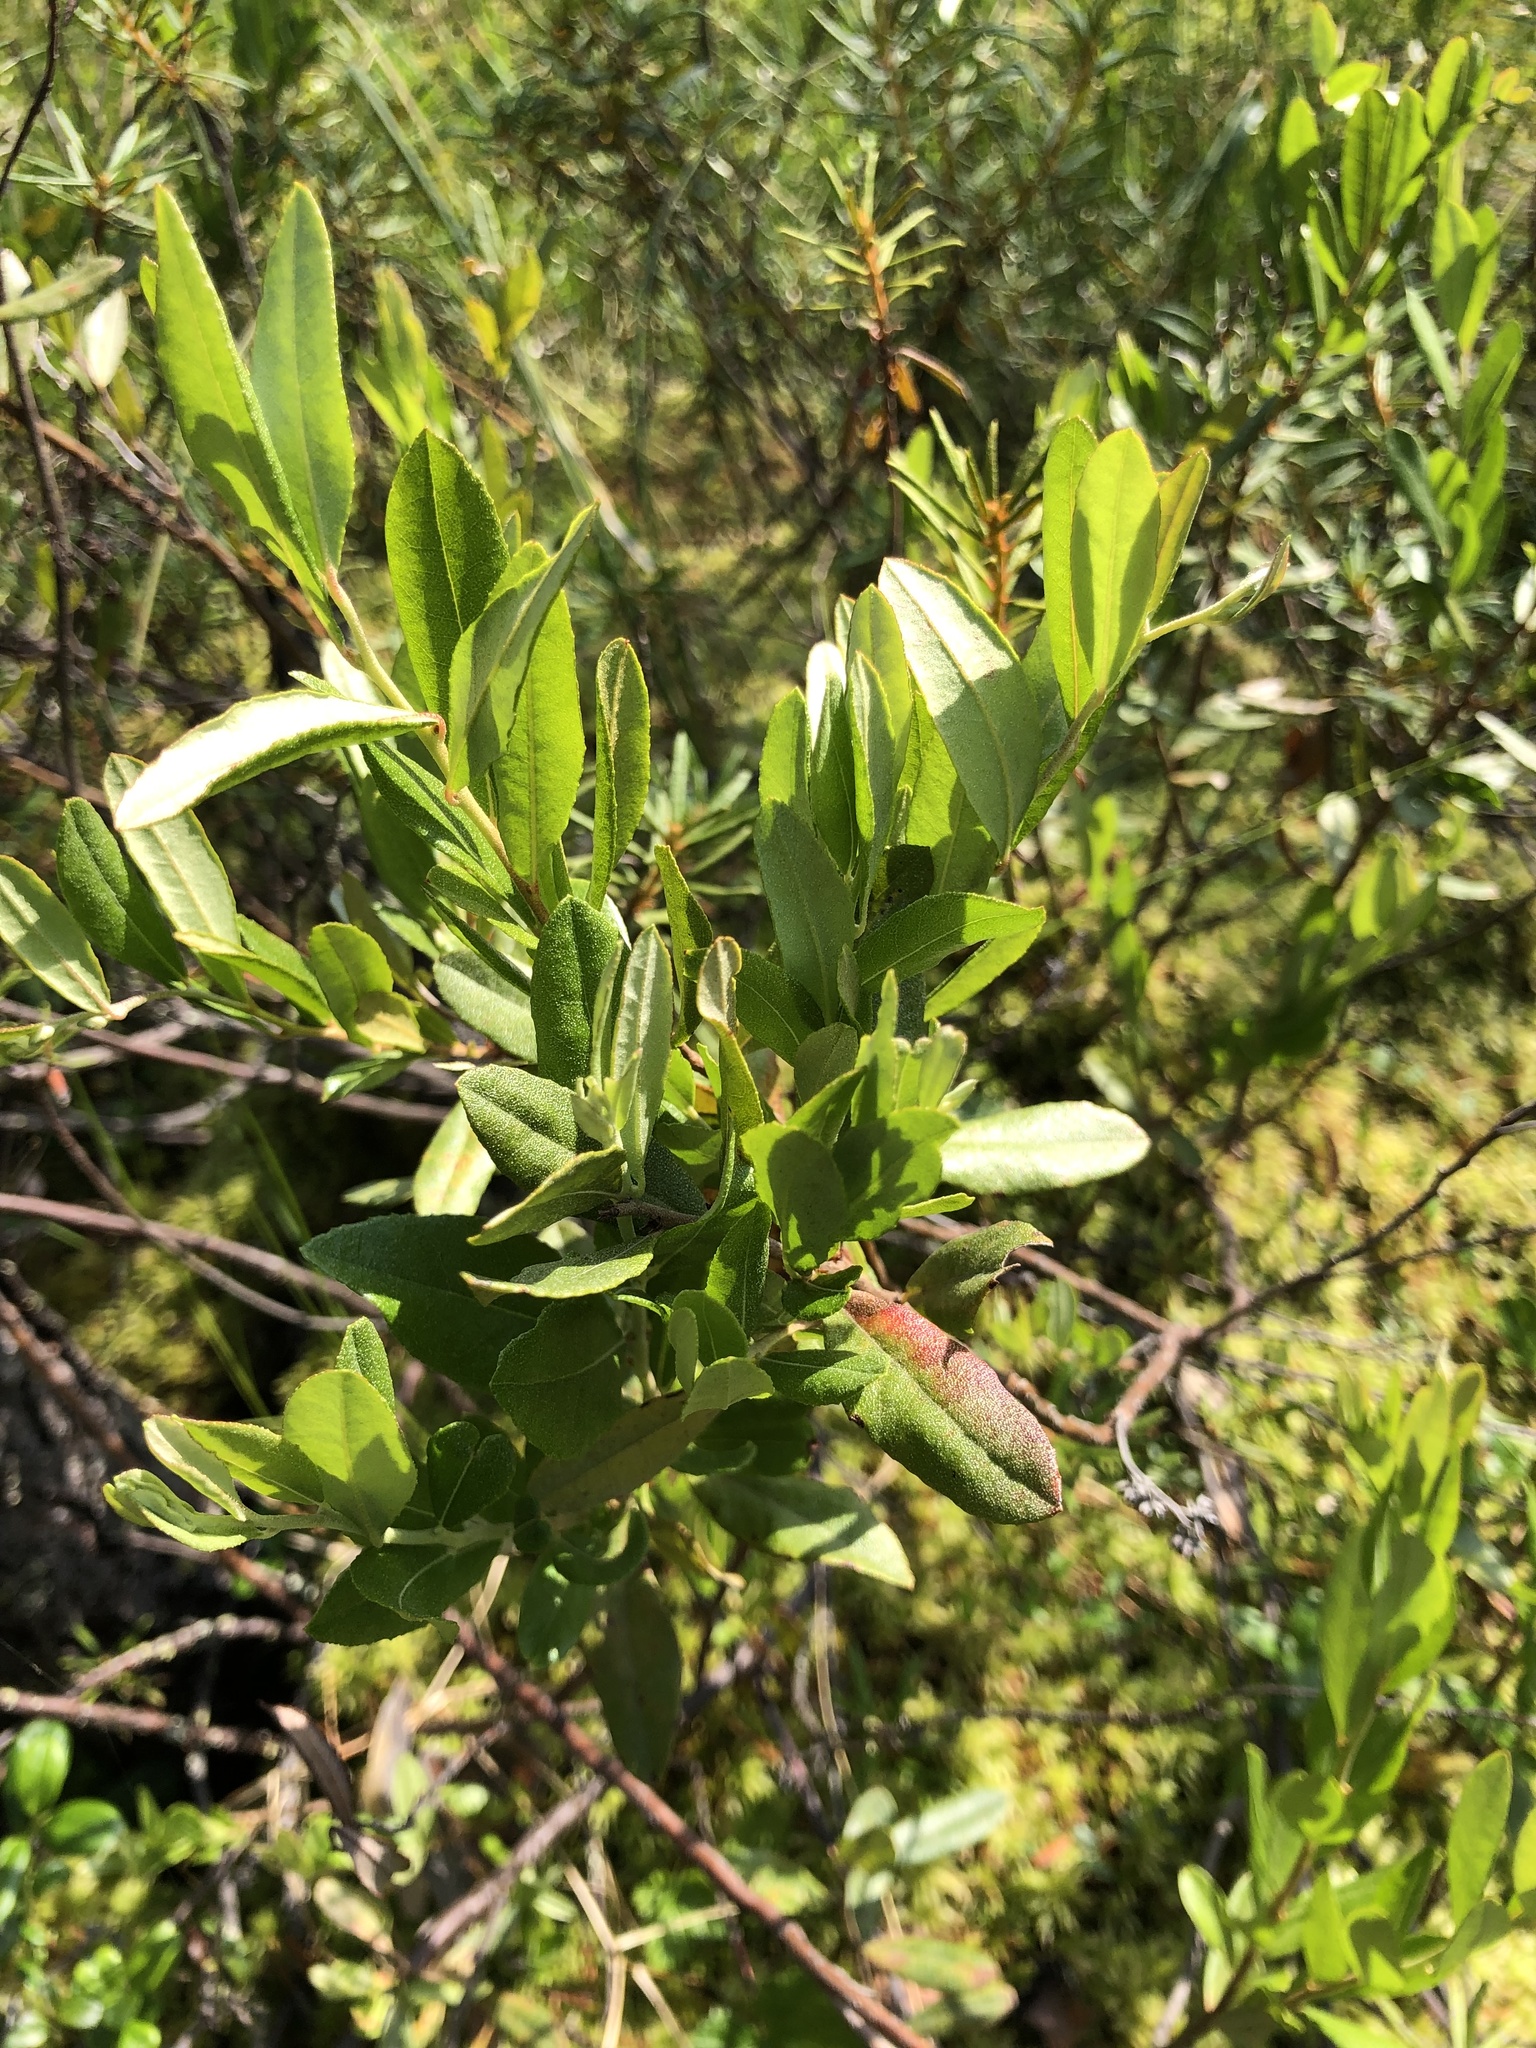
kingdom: Plantae
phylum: Tracheophyta
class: Magnoliopsida
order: Ericales
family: Ericaceae
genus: Chamaedaphne
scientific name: Chamaedaphne calyculata
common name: Leatherleaf
